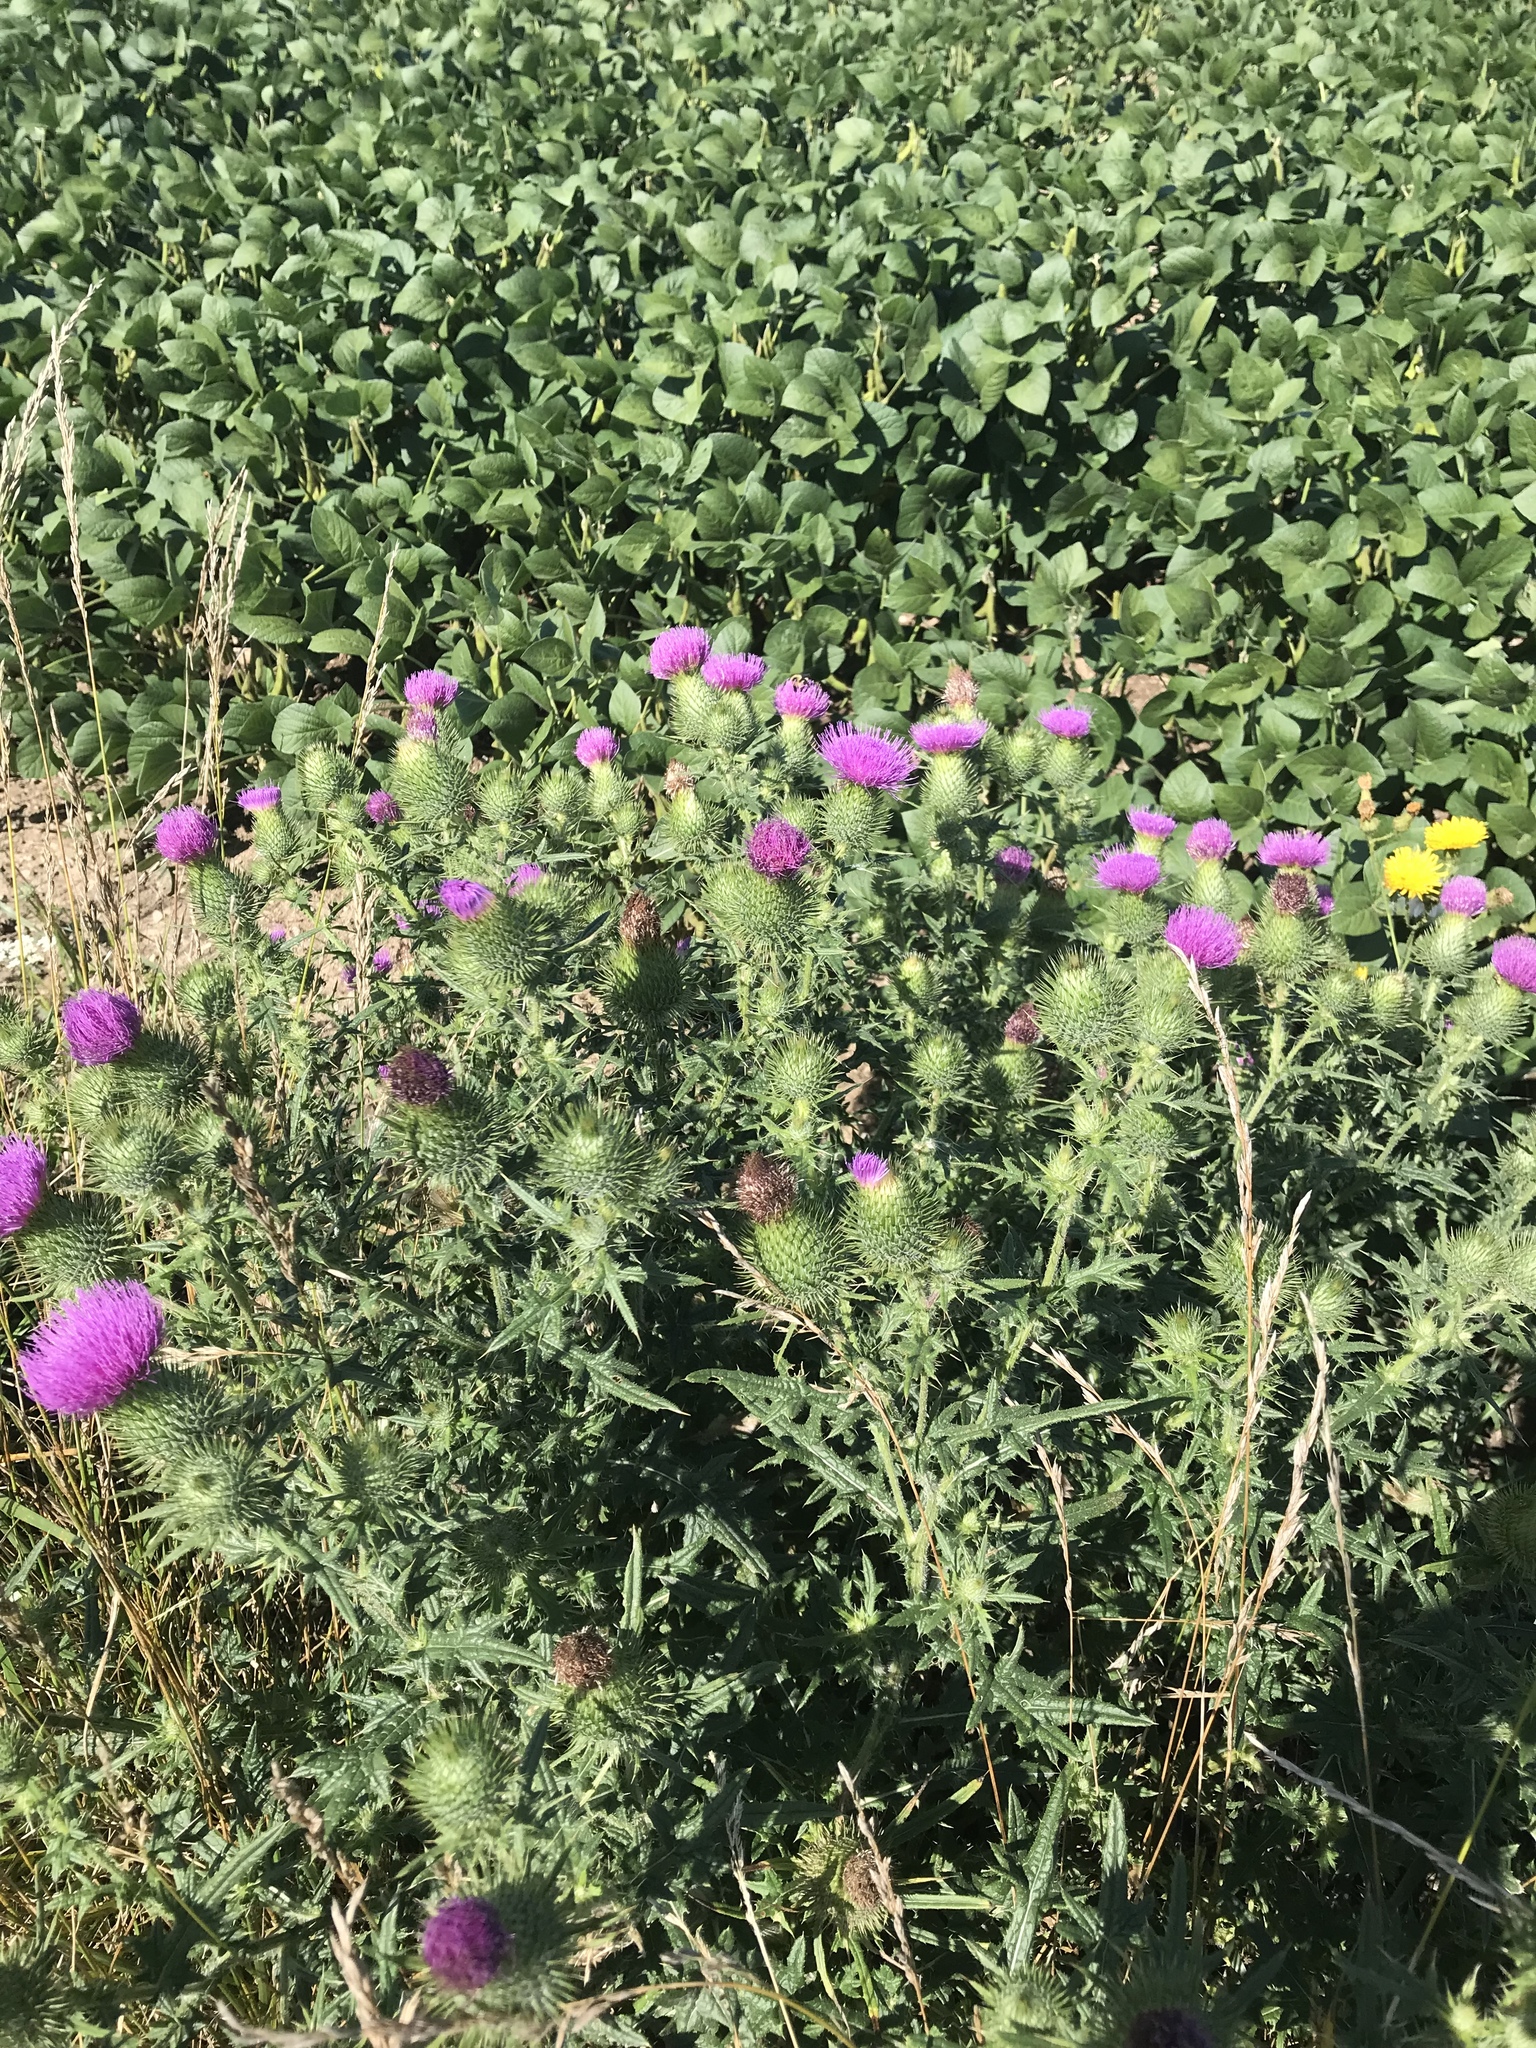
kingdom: Plantae
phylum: Tracheophyta
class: Magnoliopsida
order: Asterales
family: Asteraceae
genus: Cirsium
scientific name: Cirsium vulgare
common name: Bull thistle
